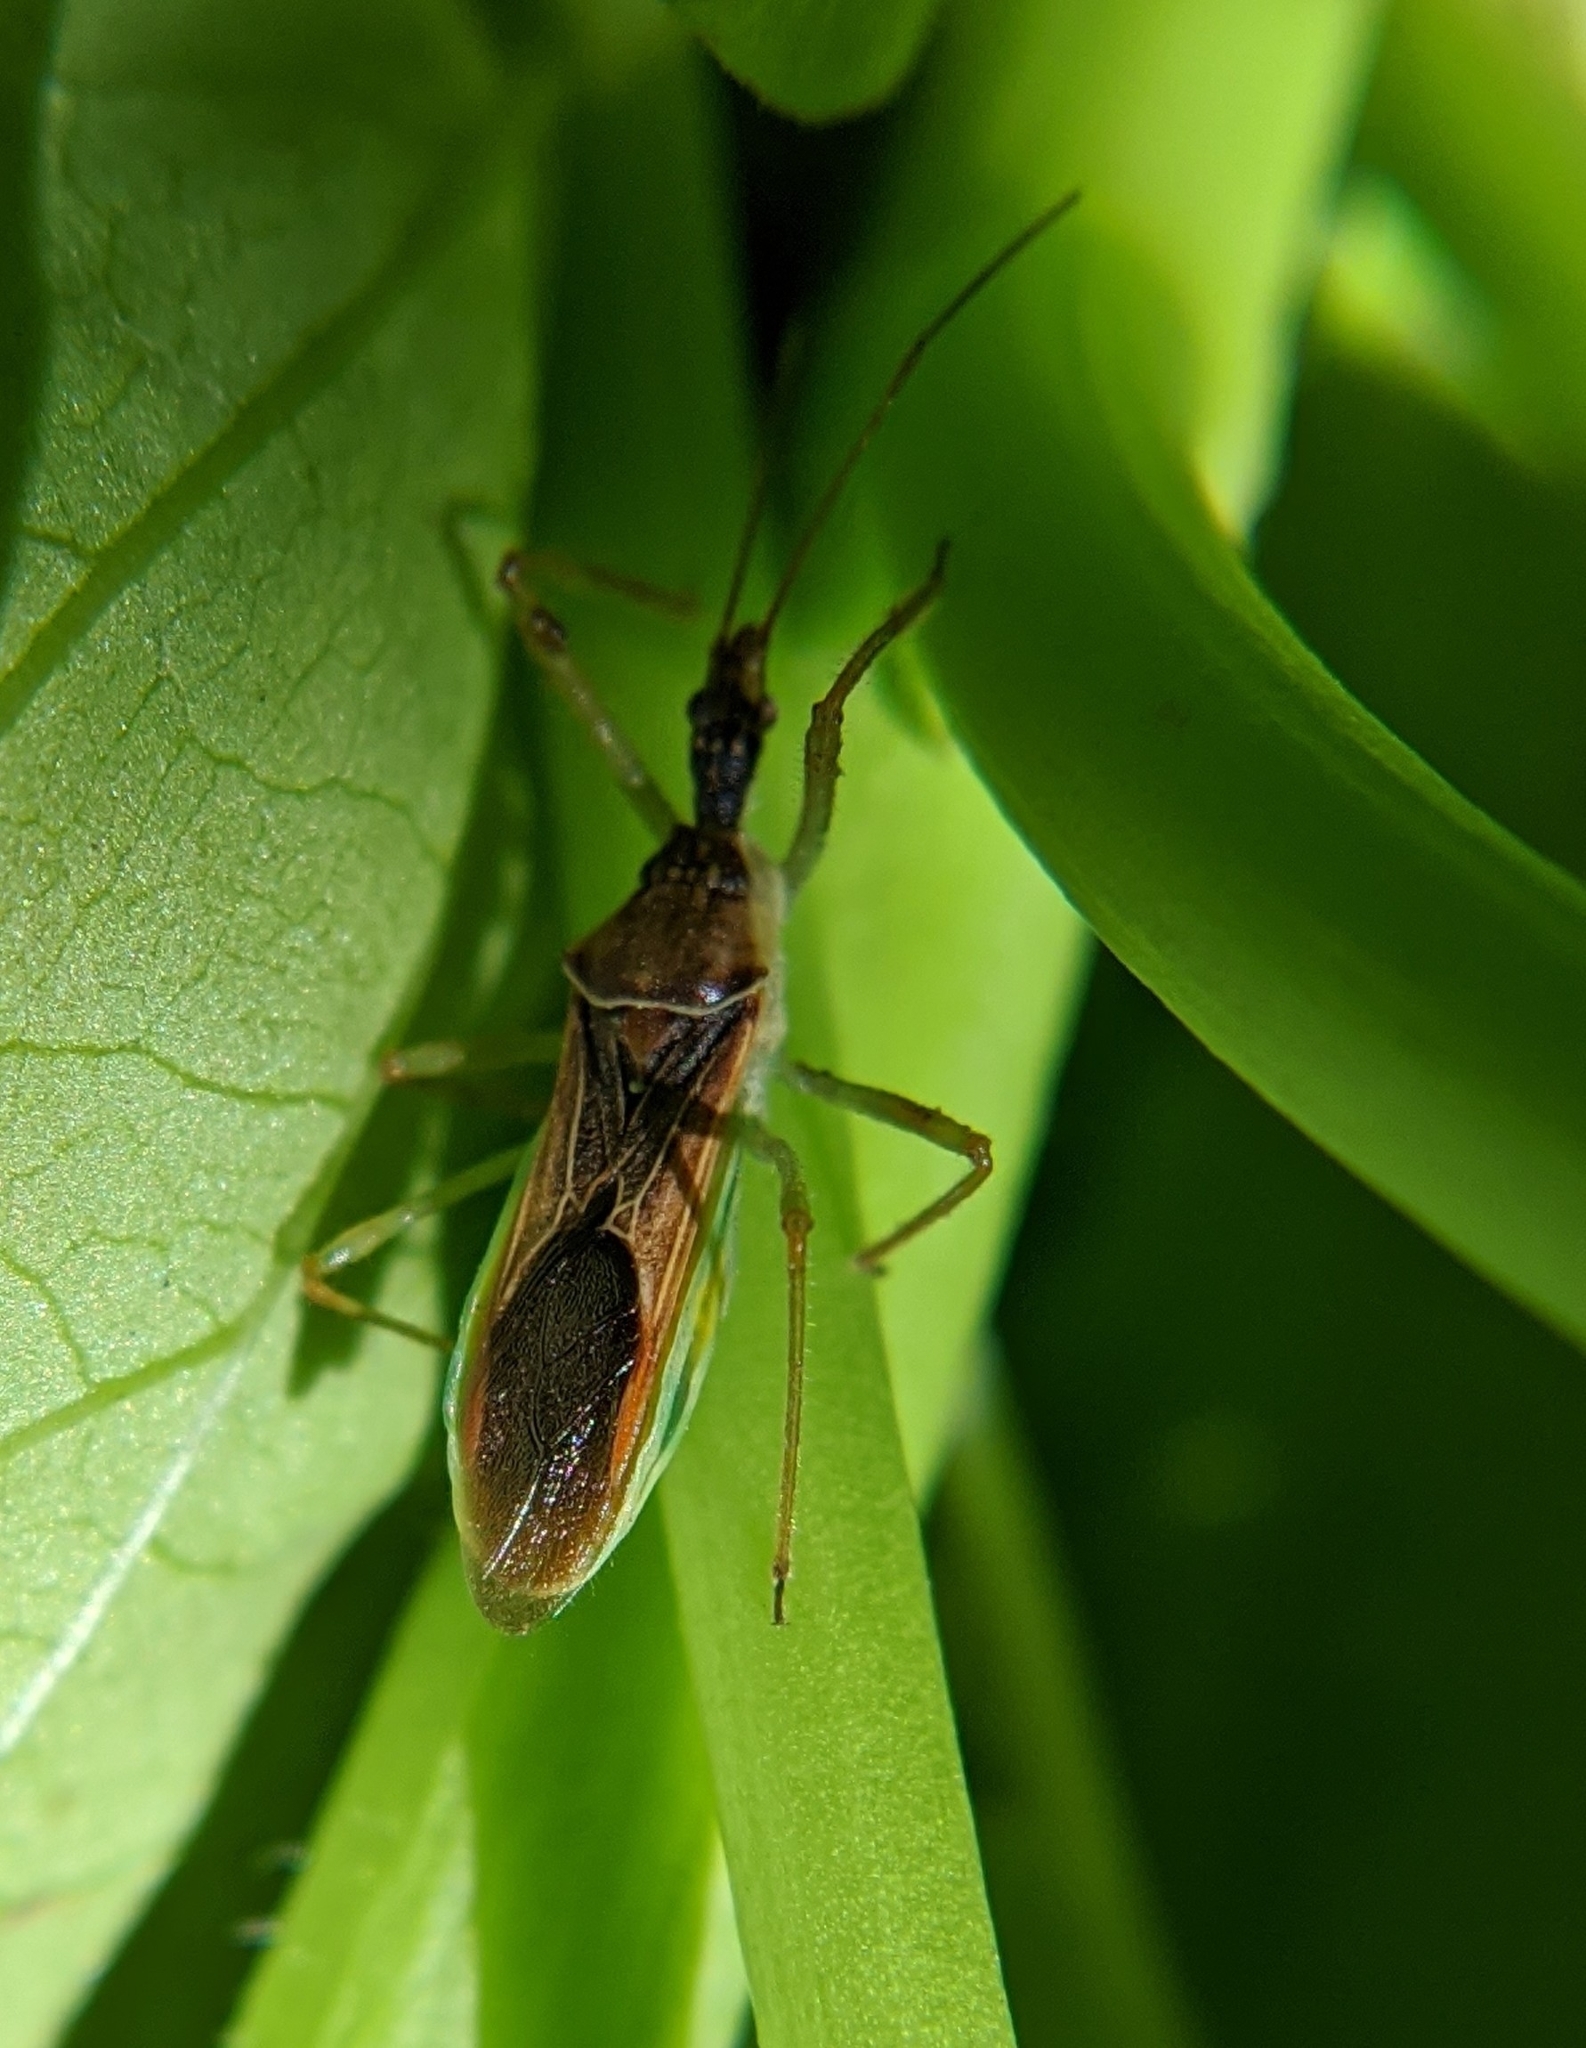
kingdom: Animalia
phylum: Arthropoda
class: Insecta
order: Hemiptera
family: Reduviidae
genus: Zelus
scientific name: Zelus renardii
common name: Assassin bug
